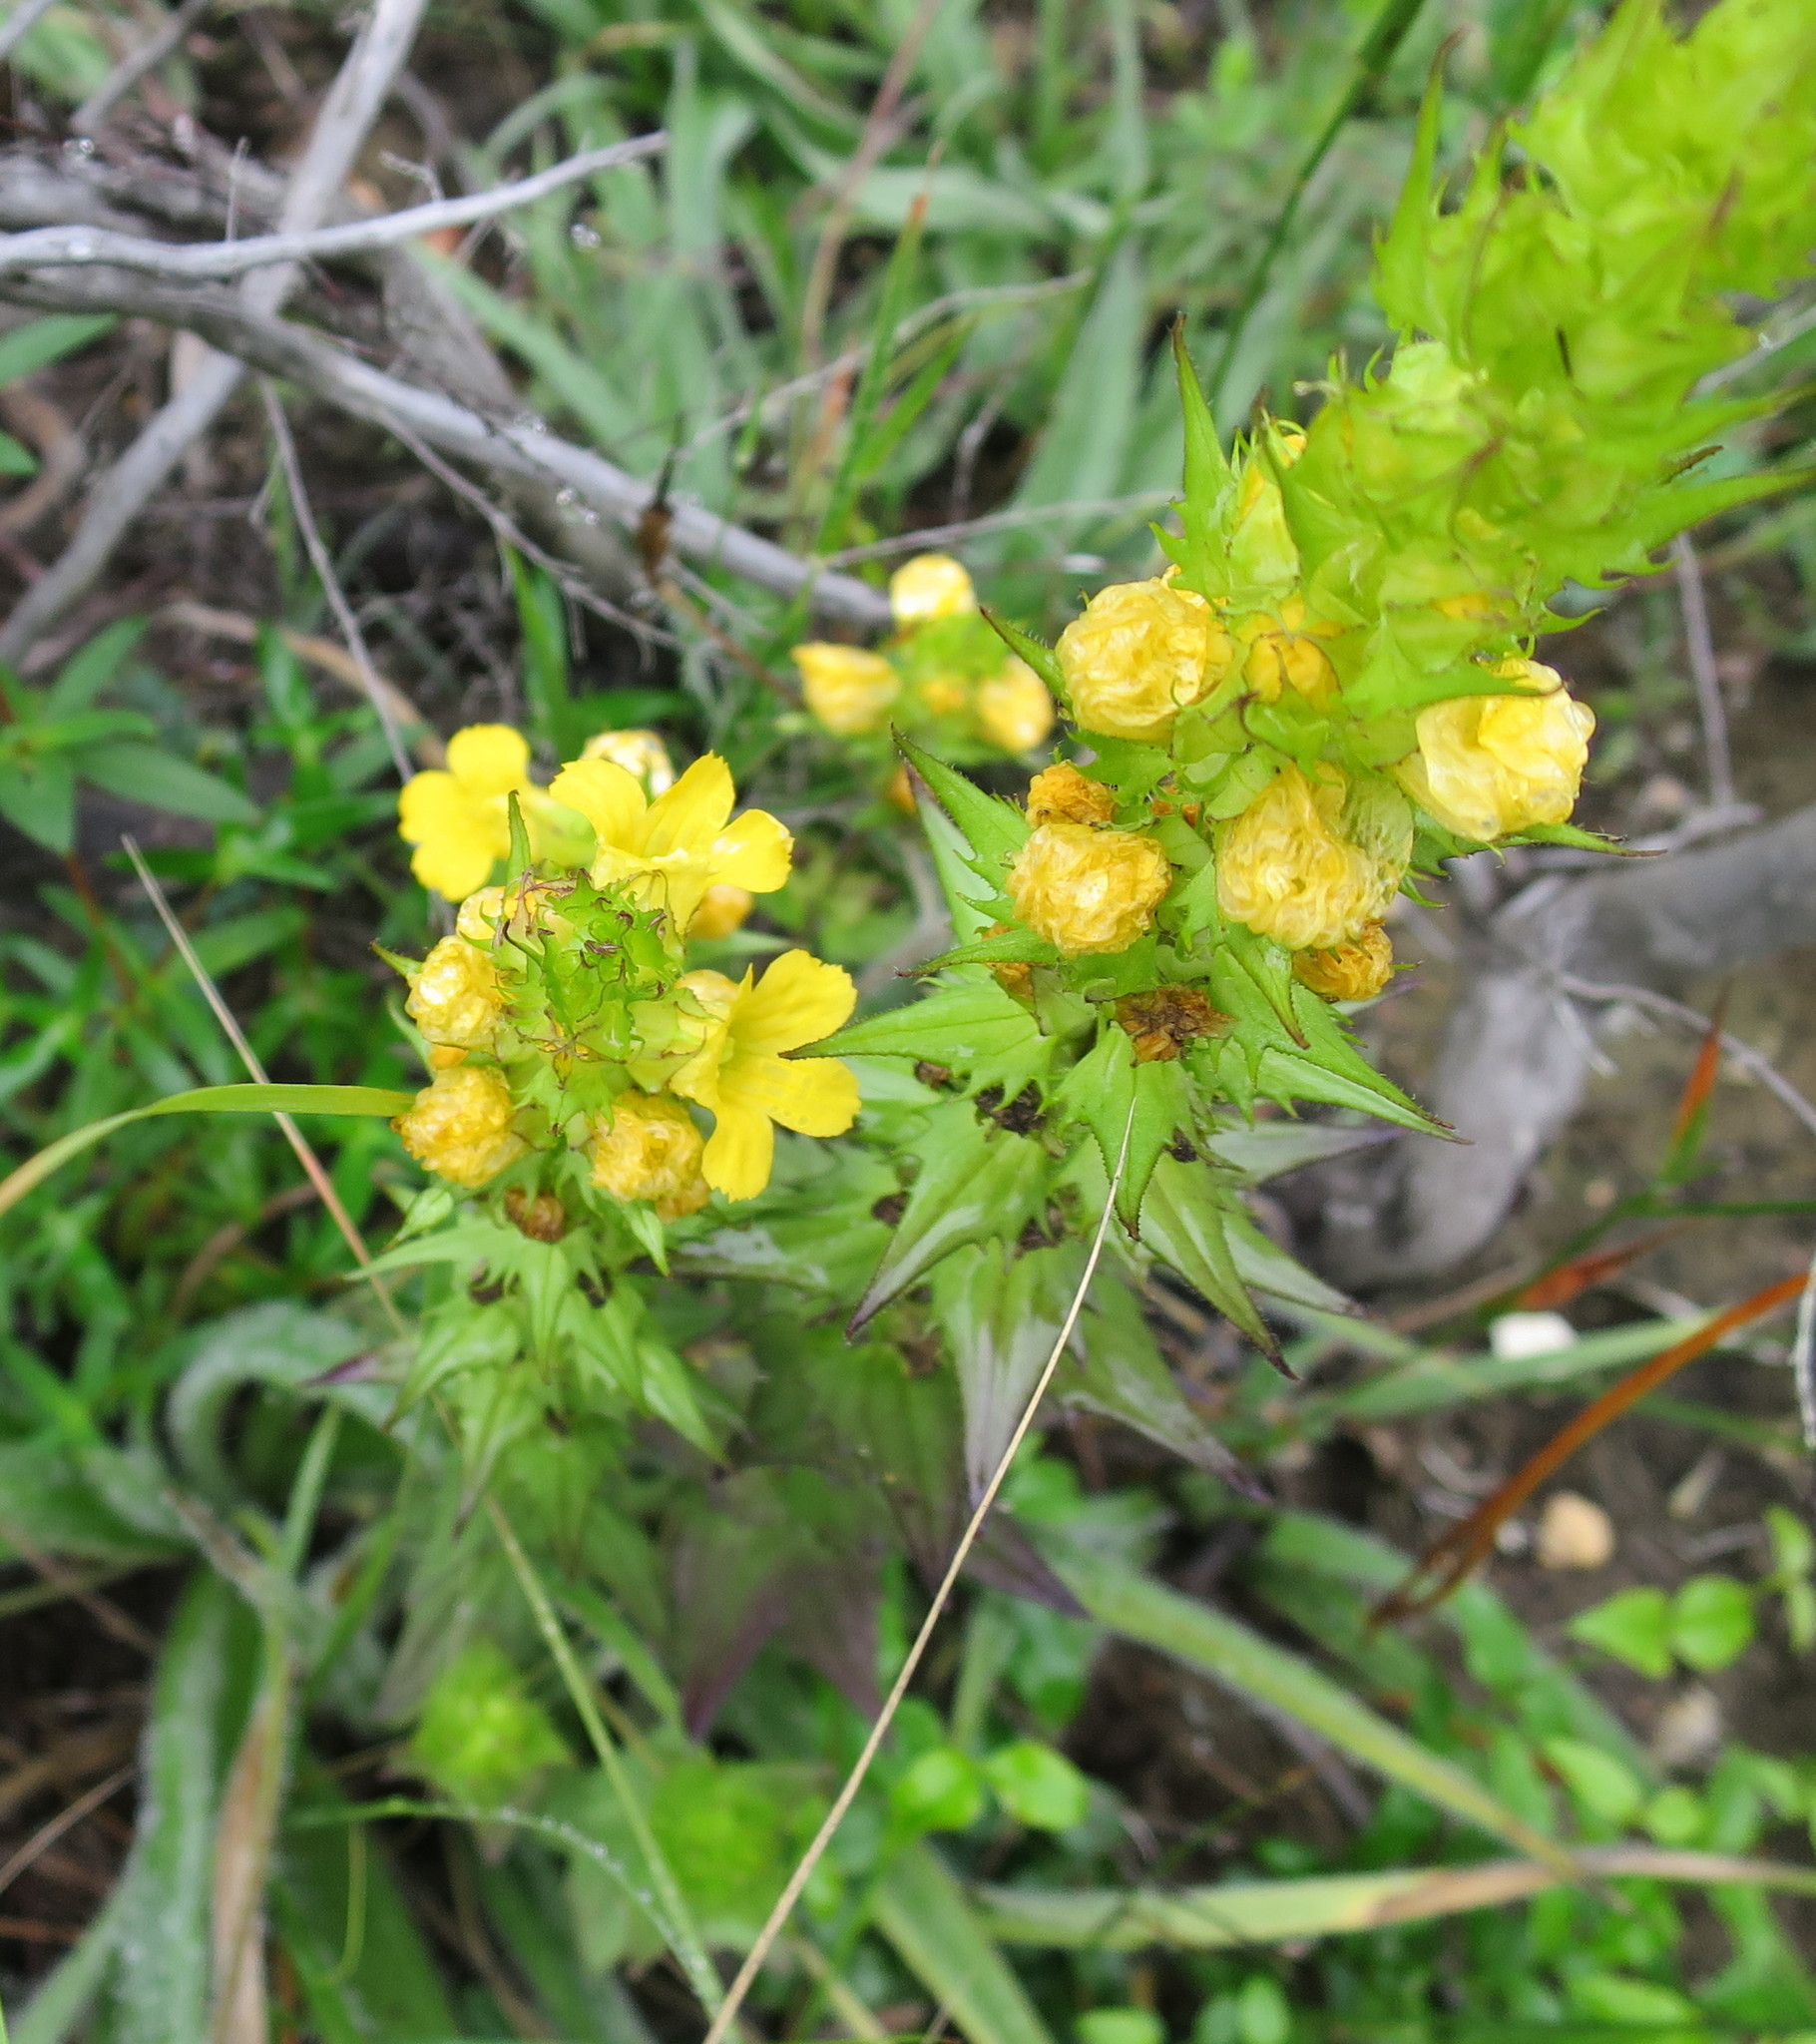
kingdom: Plantae
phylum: Tracheophyta
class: Magnoliopsida
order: Lamiales
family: Orobanchaceae
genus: Alectra
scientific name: Alectra sessiliflora
